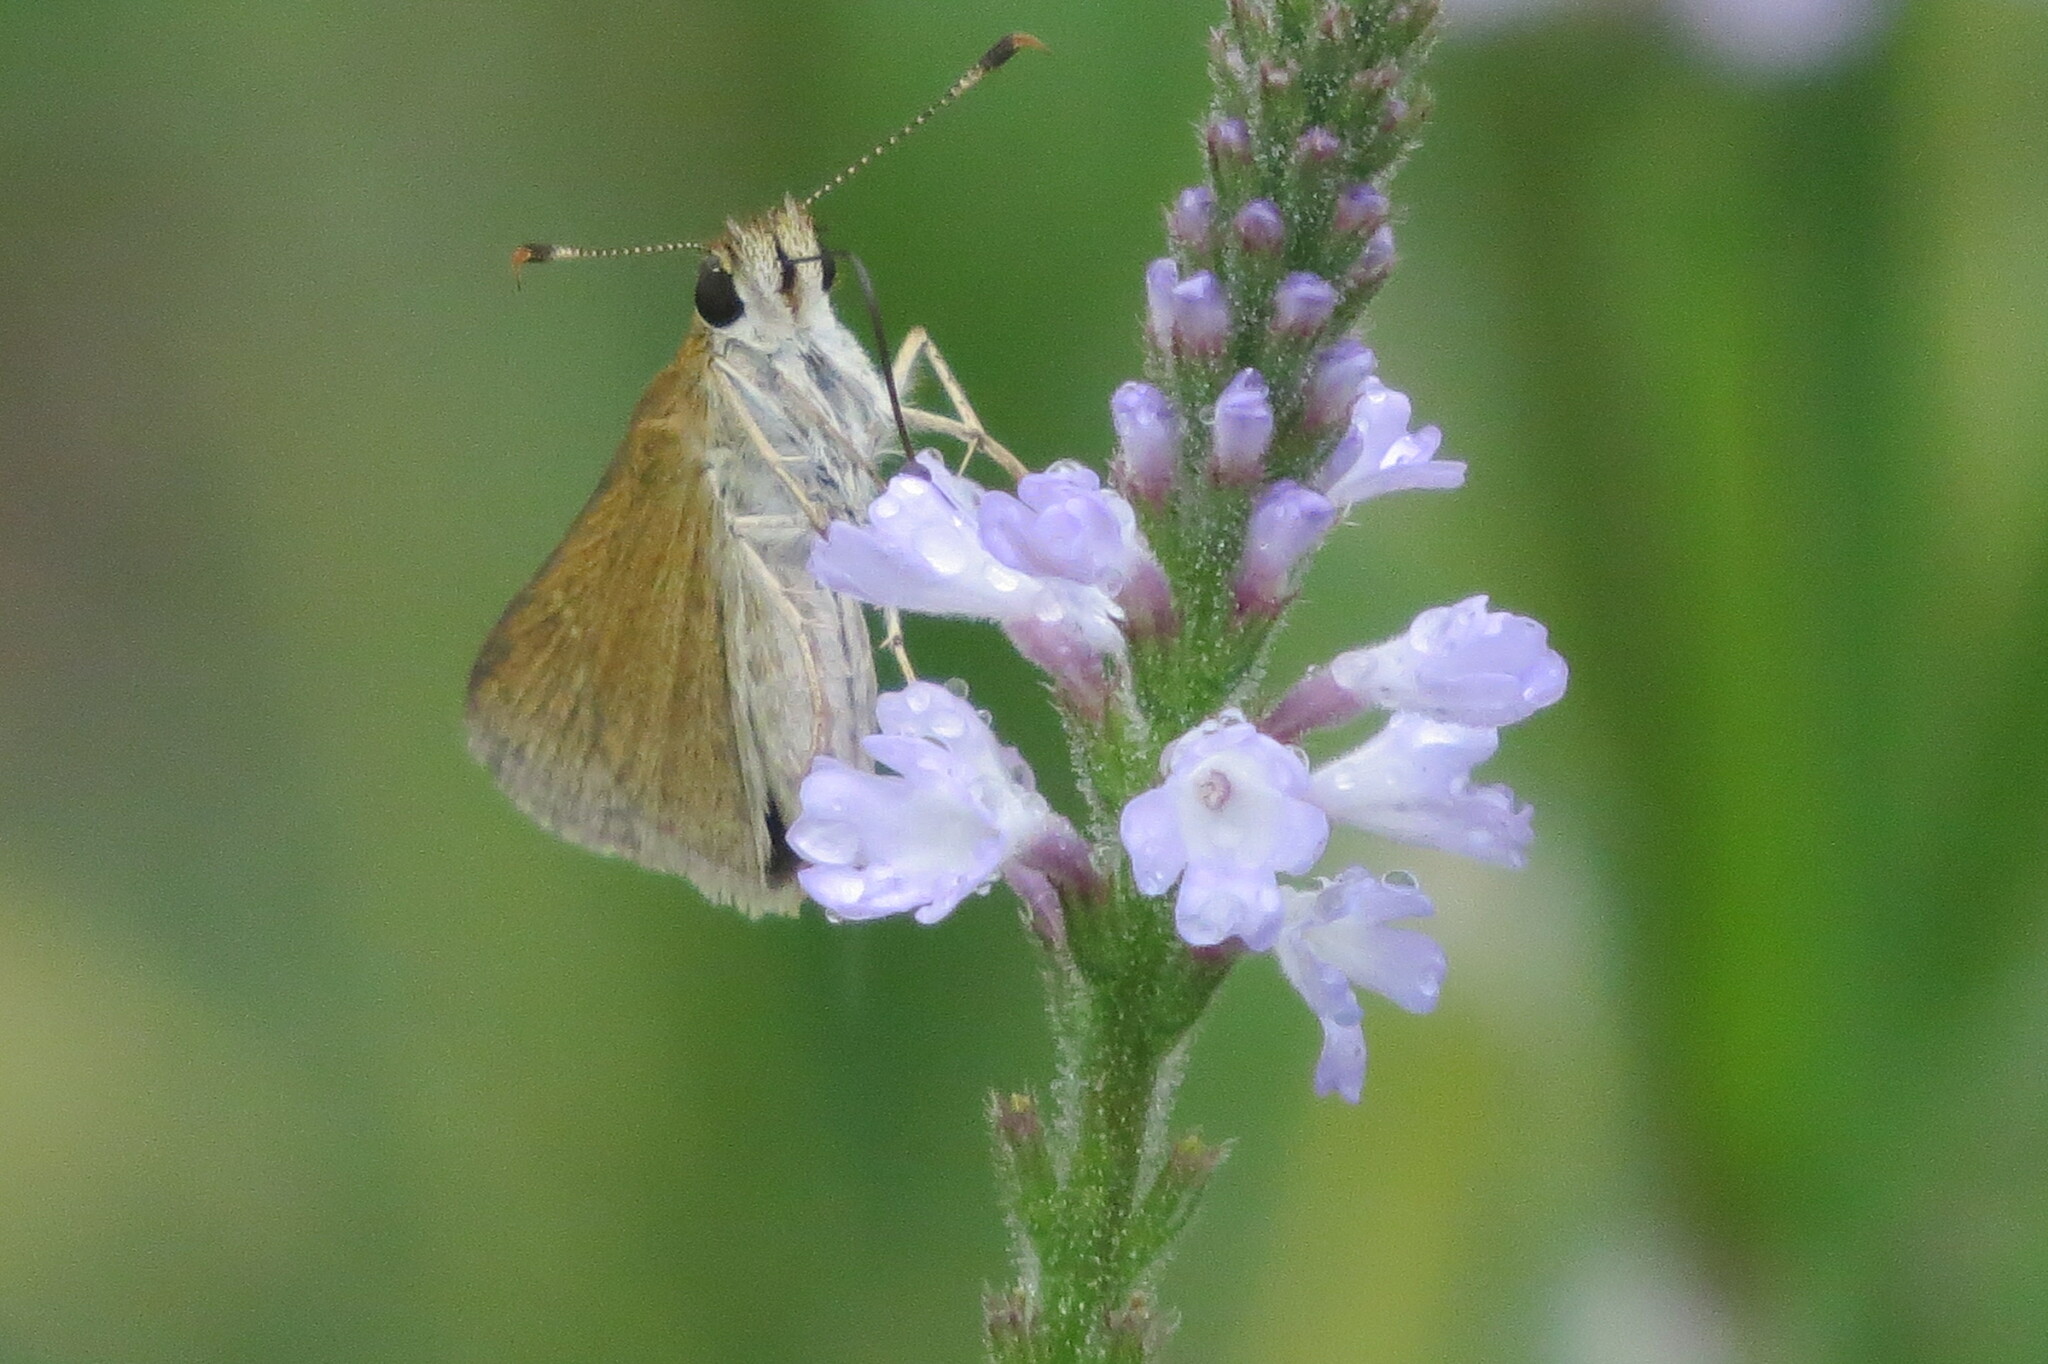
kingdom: Animalia
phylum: Arthropoda
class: Insecta
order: Lepidoptera
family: Hesperiidae
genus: Nastra
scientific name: Nastra julia
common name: Julia's skipper
